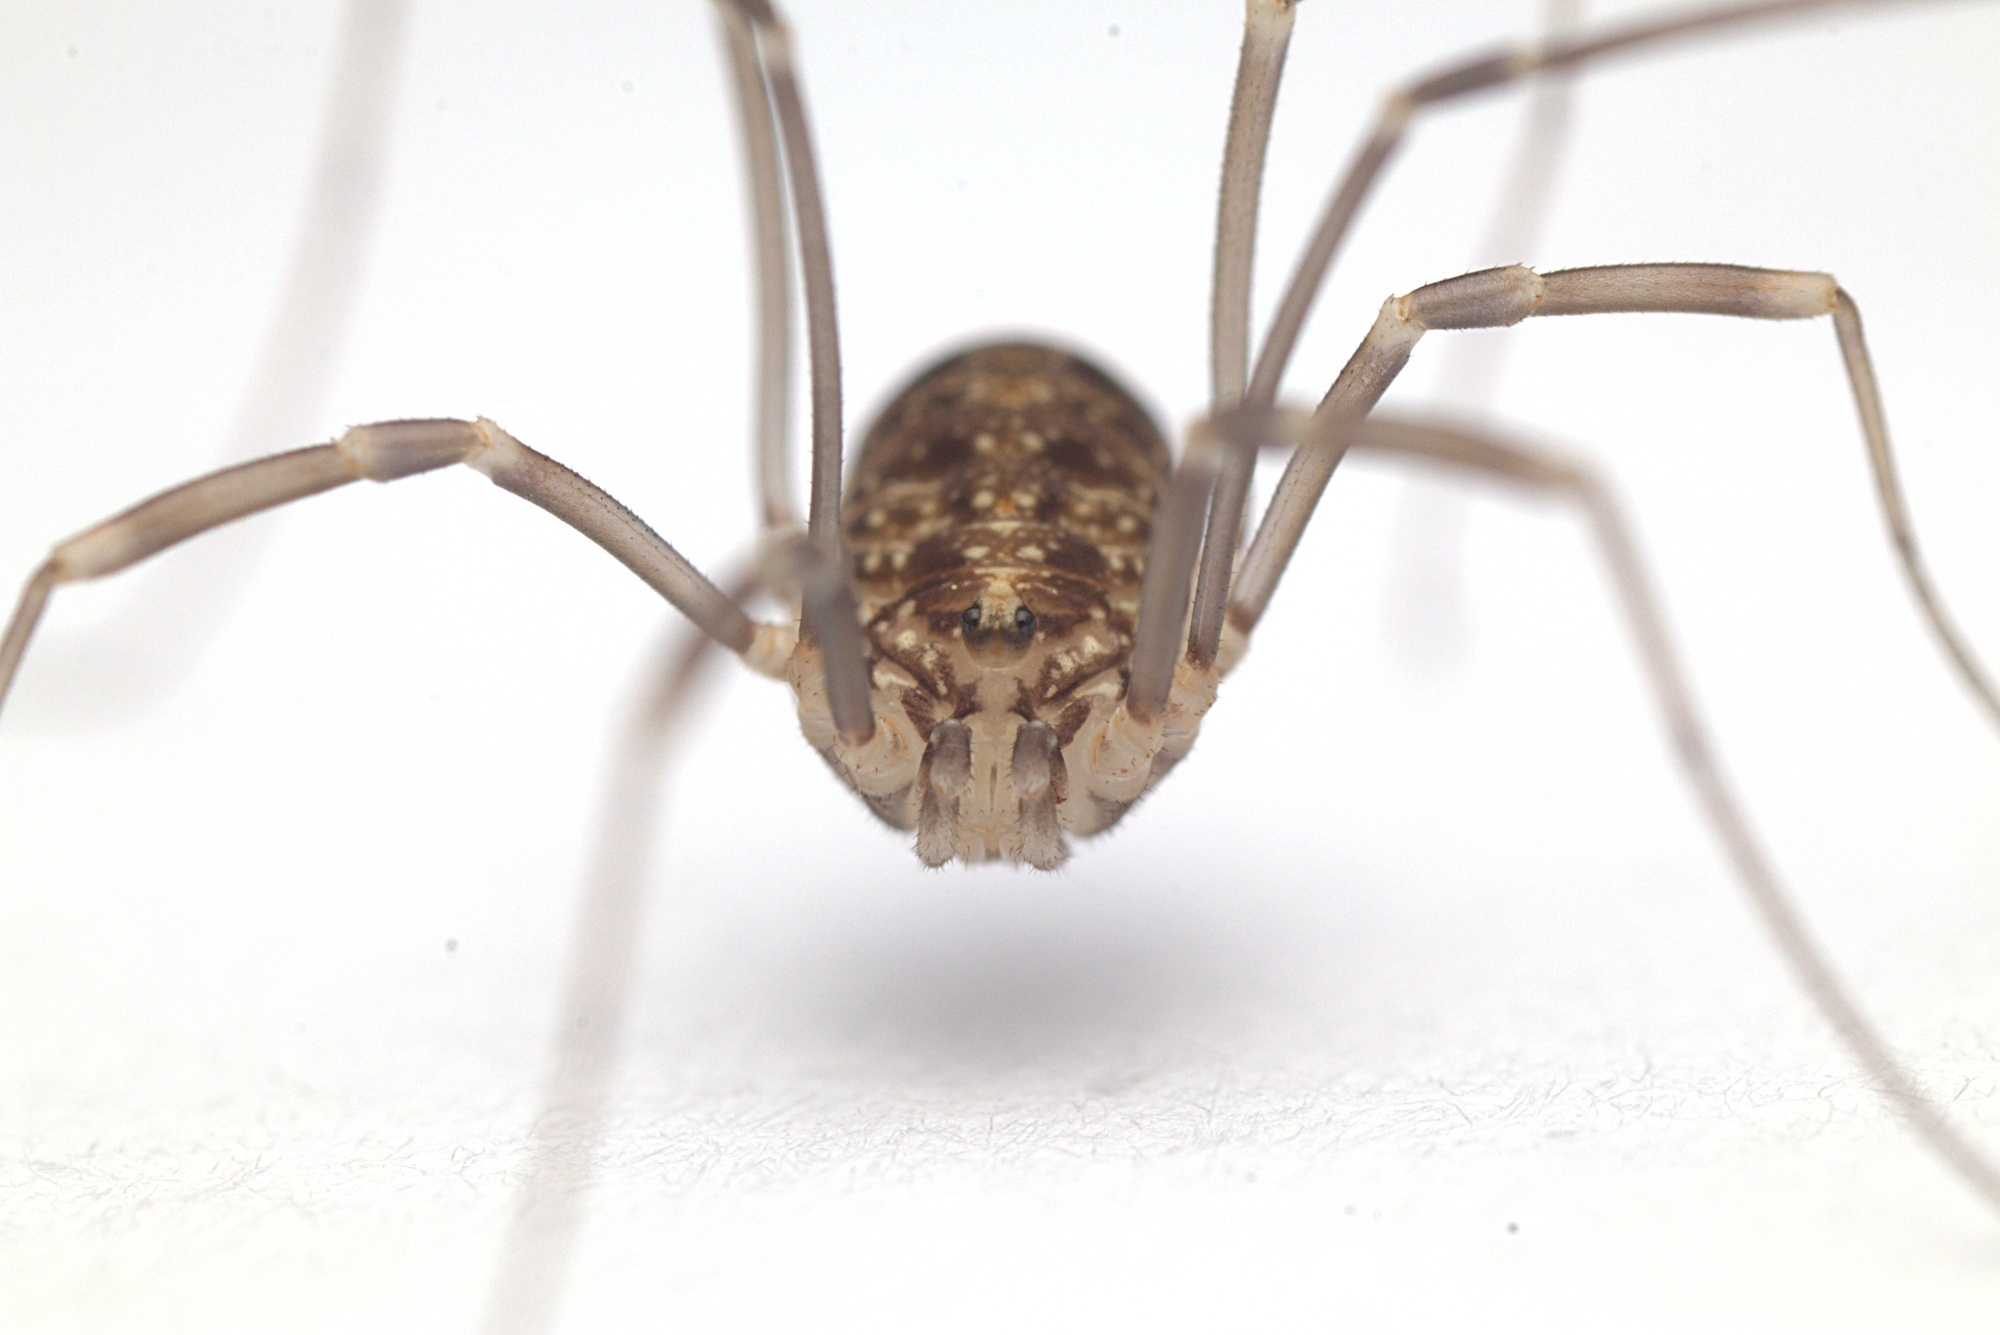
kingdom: Animalia
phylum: Arthropoda
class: Arachnida
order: Opiliones
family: Phalangiidae
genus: Phalangium
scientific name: Phalangium opilio
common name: Daddy longleg
